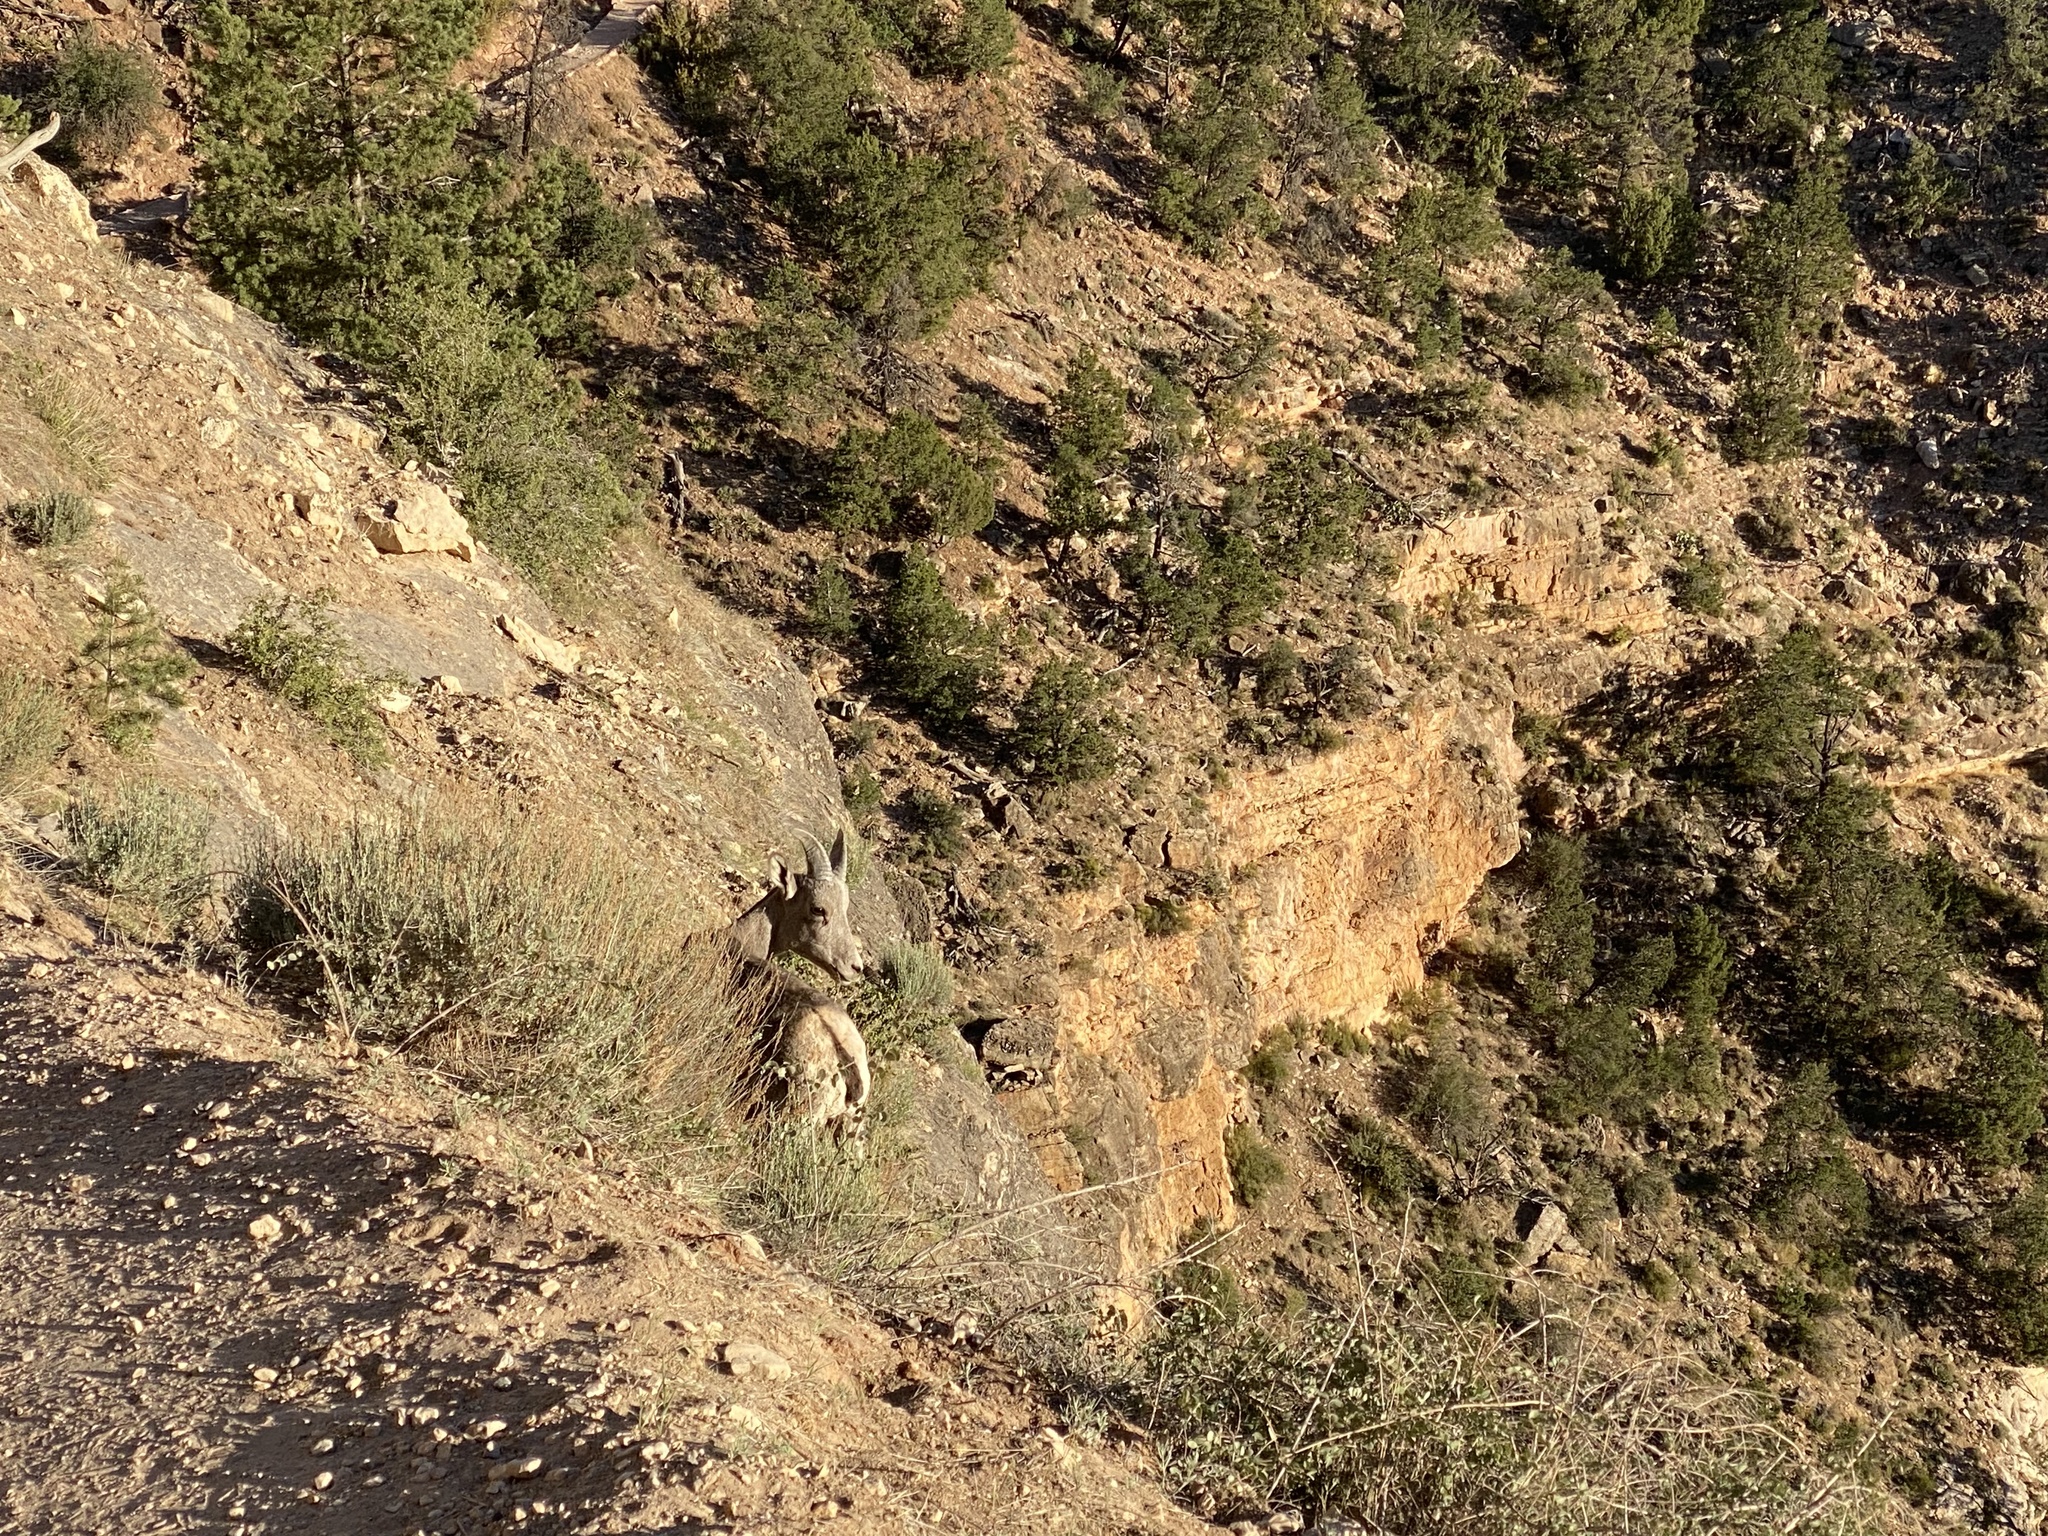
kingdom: Animalia
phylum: Chordata
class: Mammalia
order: Artiodactyla
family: Bovidae
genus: Ovis
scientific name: Ovis canadensis
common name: Bighorn sheep
